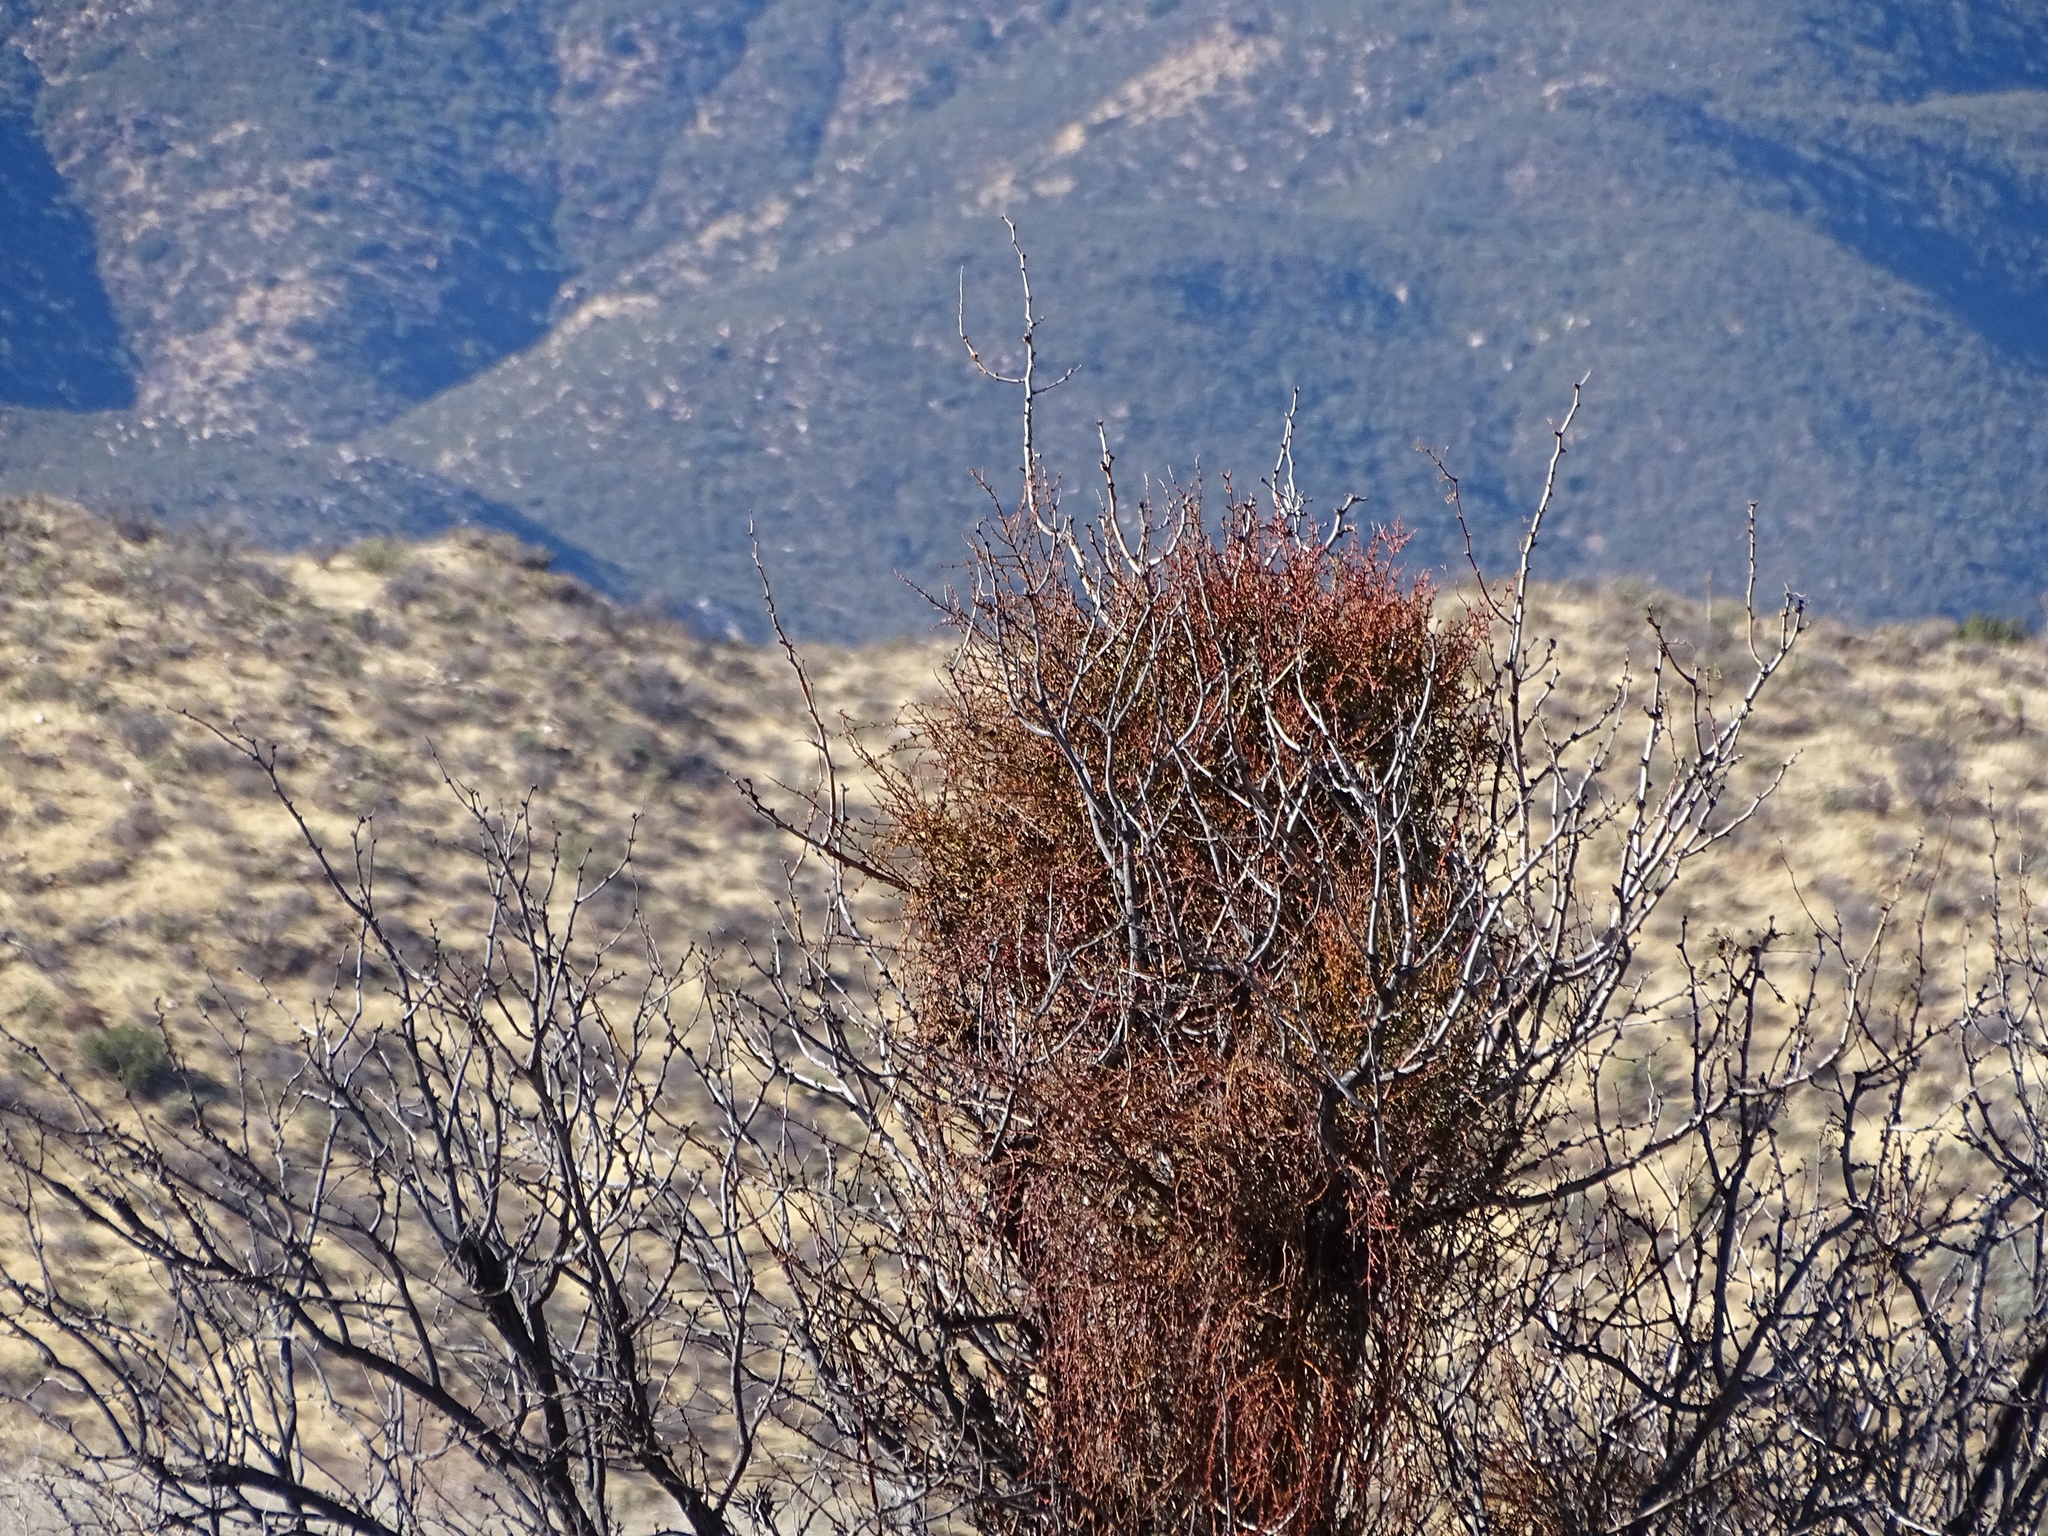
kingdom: Plantae
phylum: Tracheophyta
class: Magnoliopsida
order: Santalales
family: Viscaceae
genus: Phoradendron
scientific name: Phoradendron californicum
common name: Acacia mistletoe
